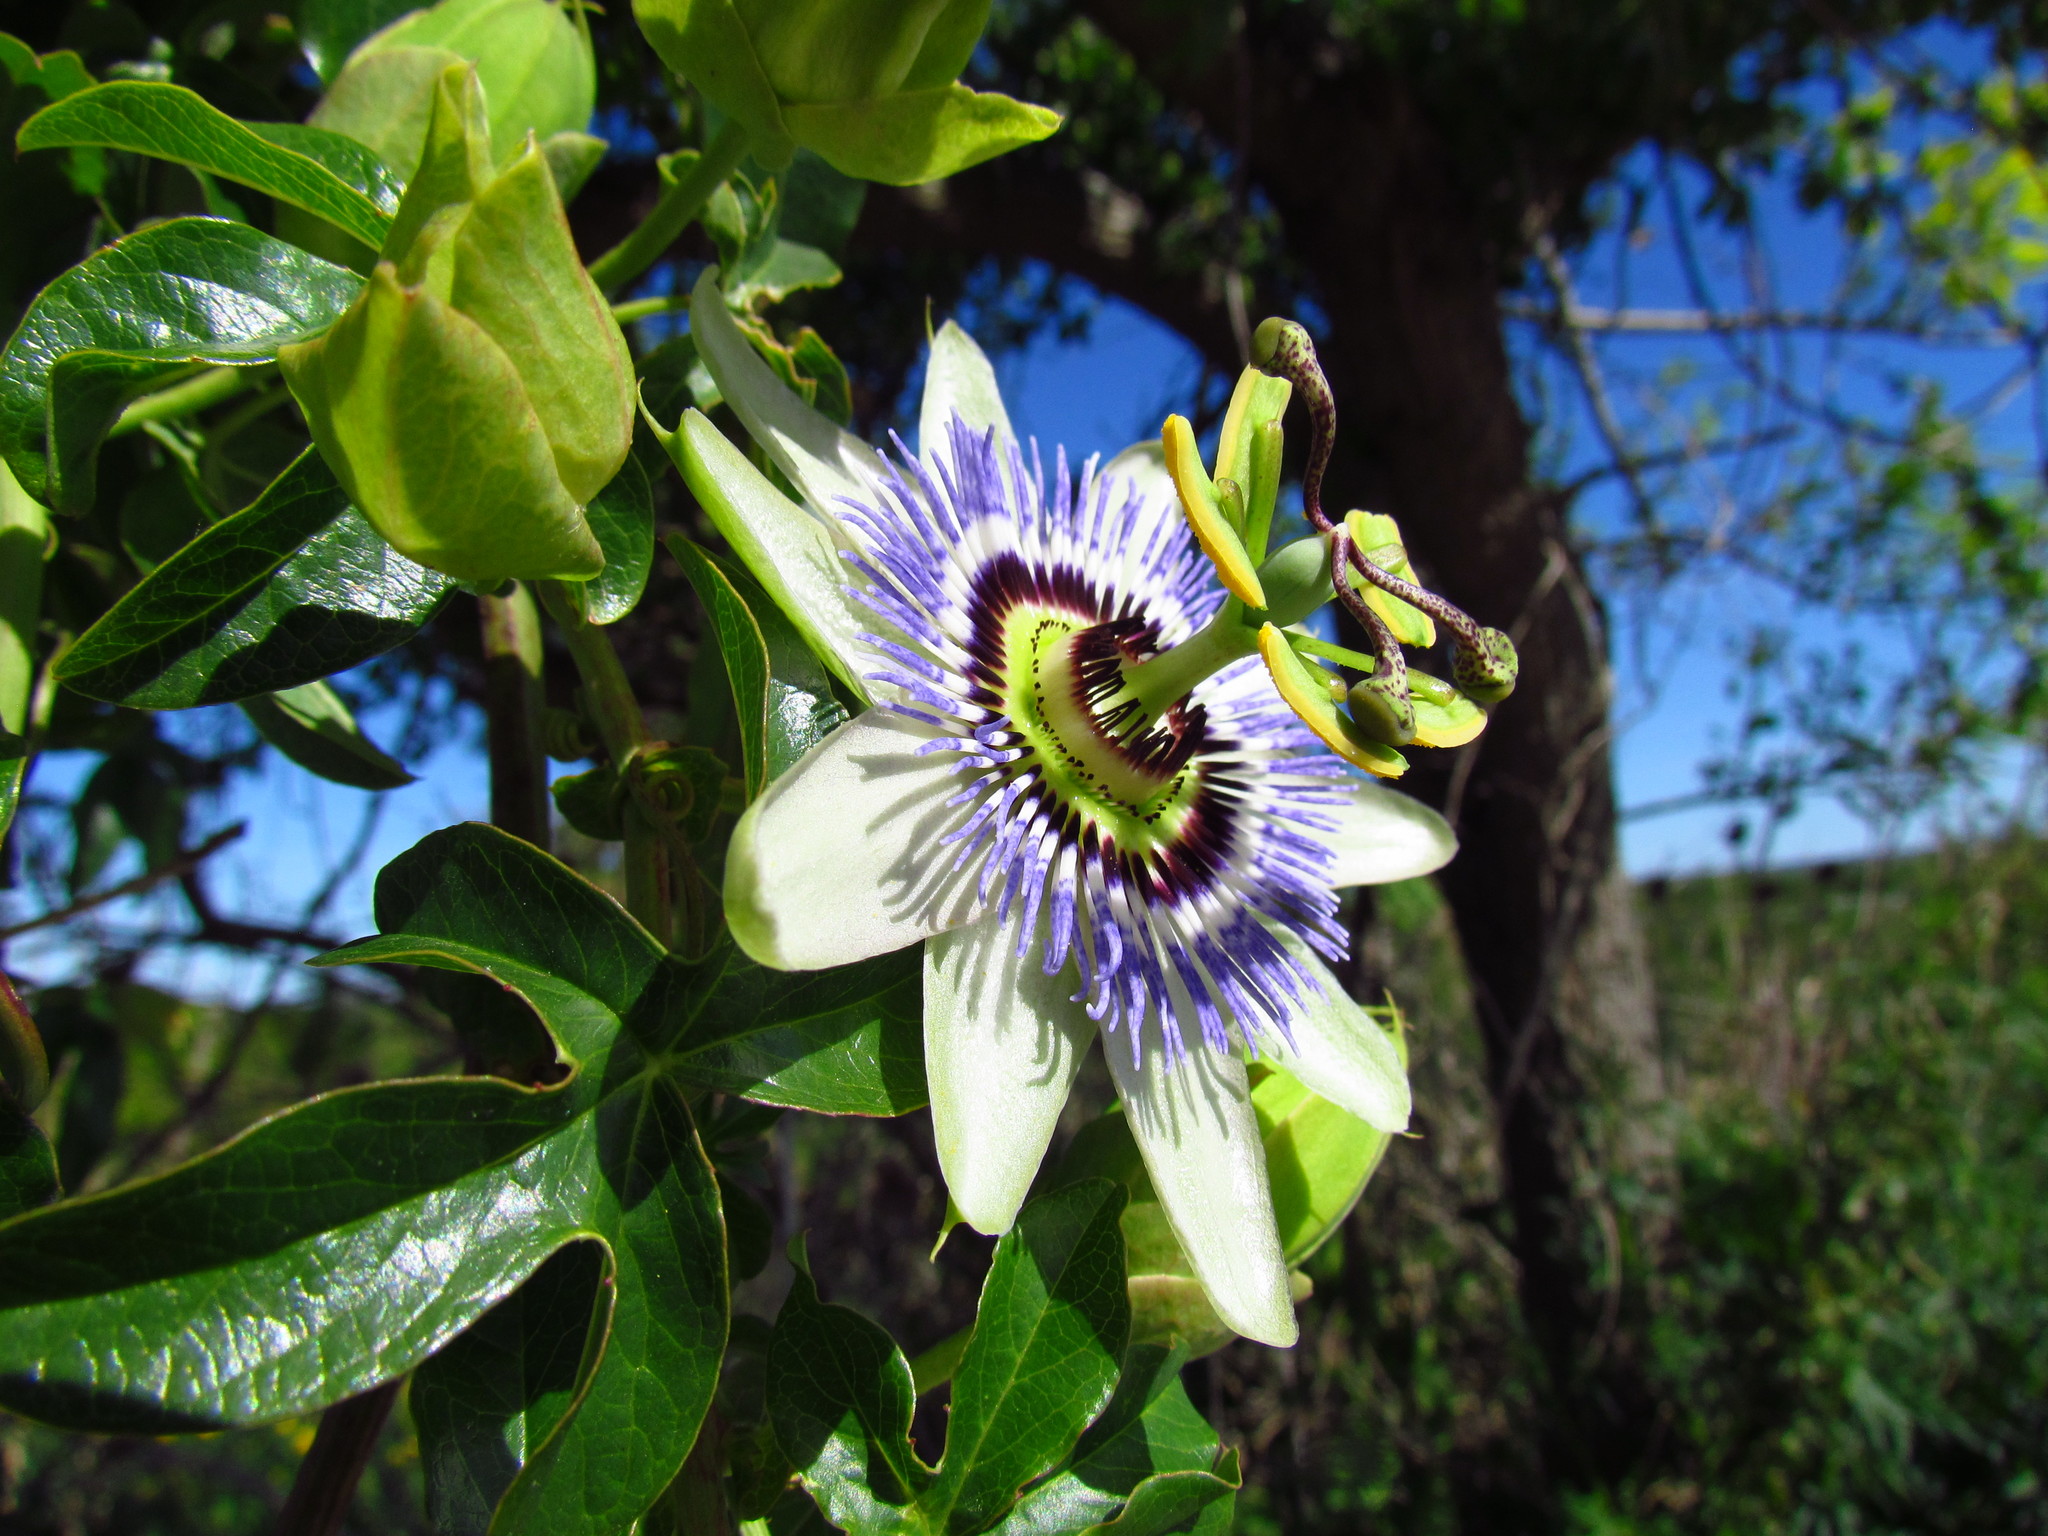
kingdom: Plantae
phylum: Tracheophyta
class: Magnoliopsida
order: Malpighiales
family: Passifloraceae
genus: Passiflora
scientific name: Passiflora caerulea
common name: Blue passionflower
